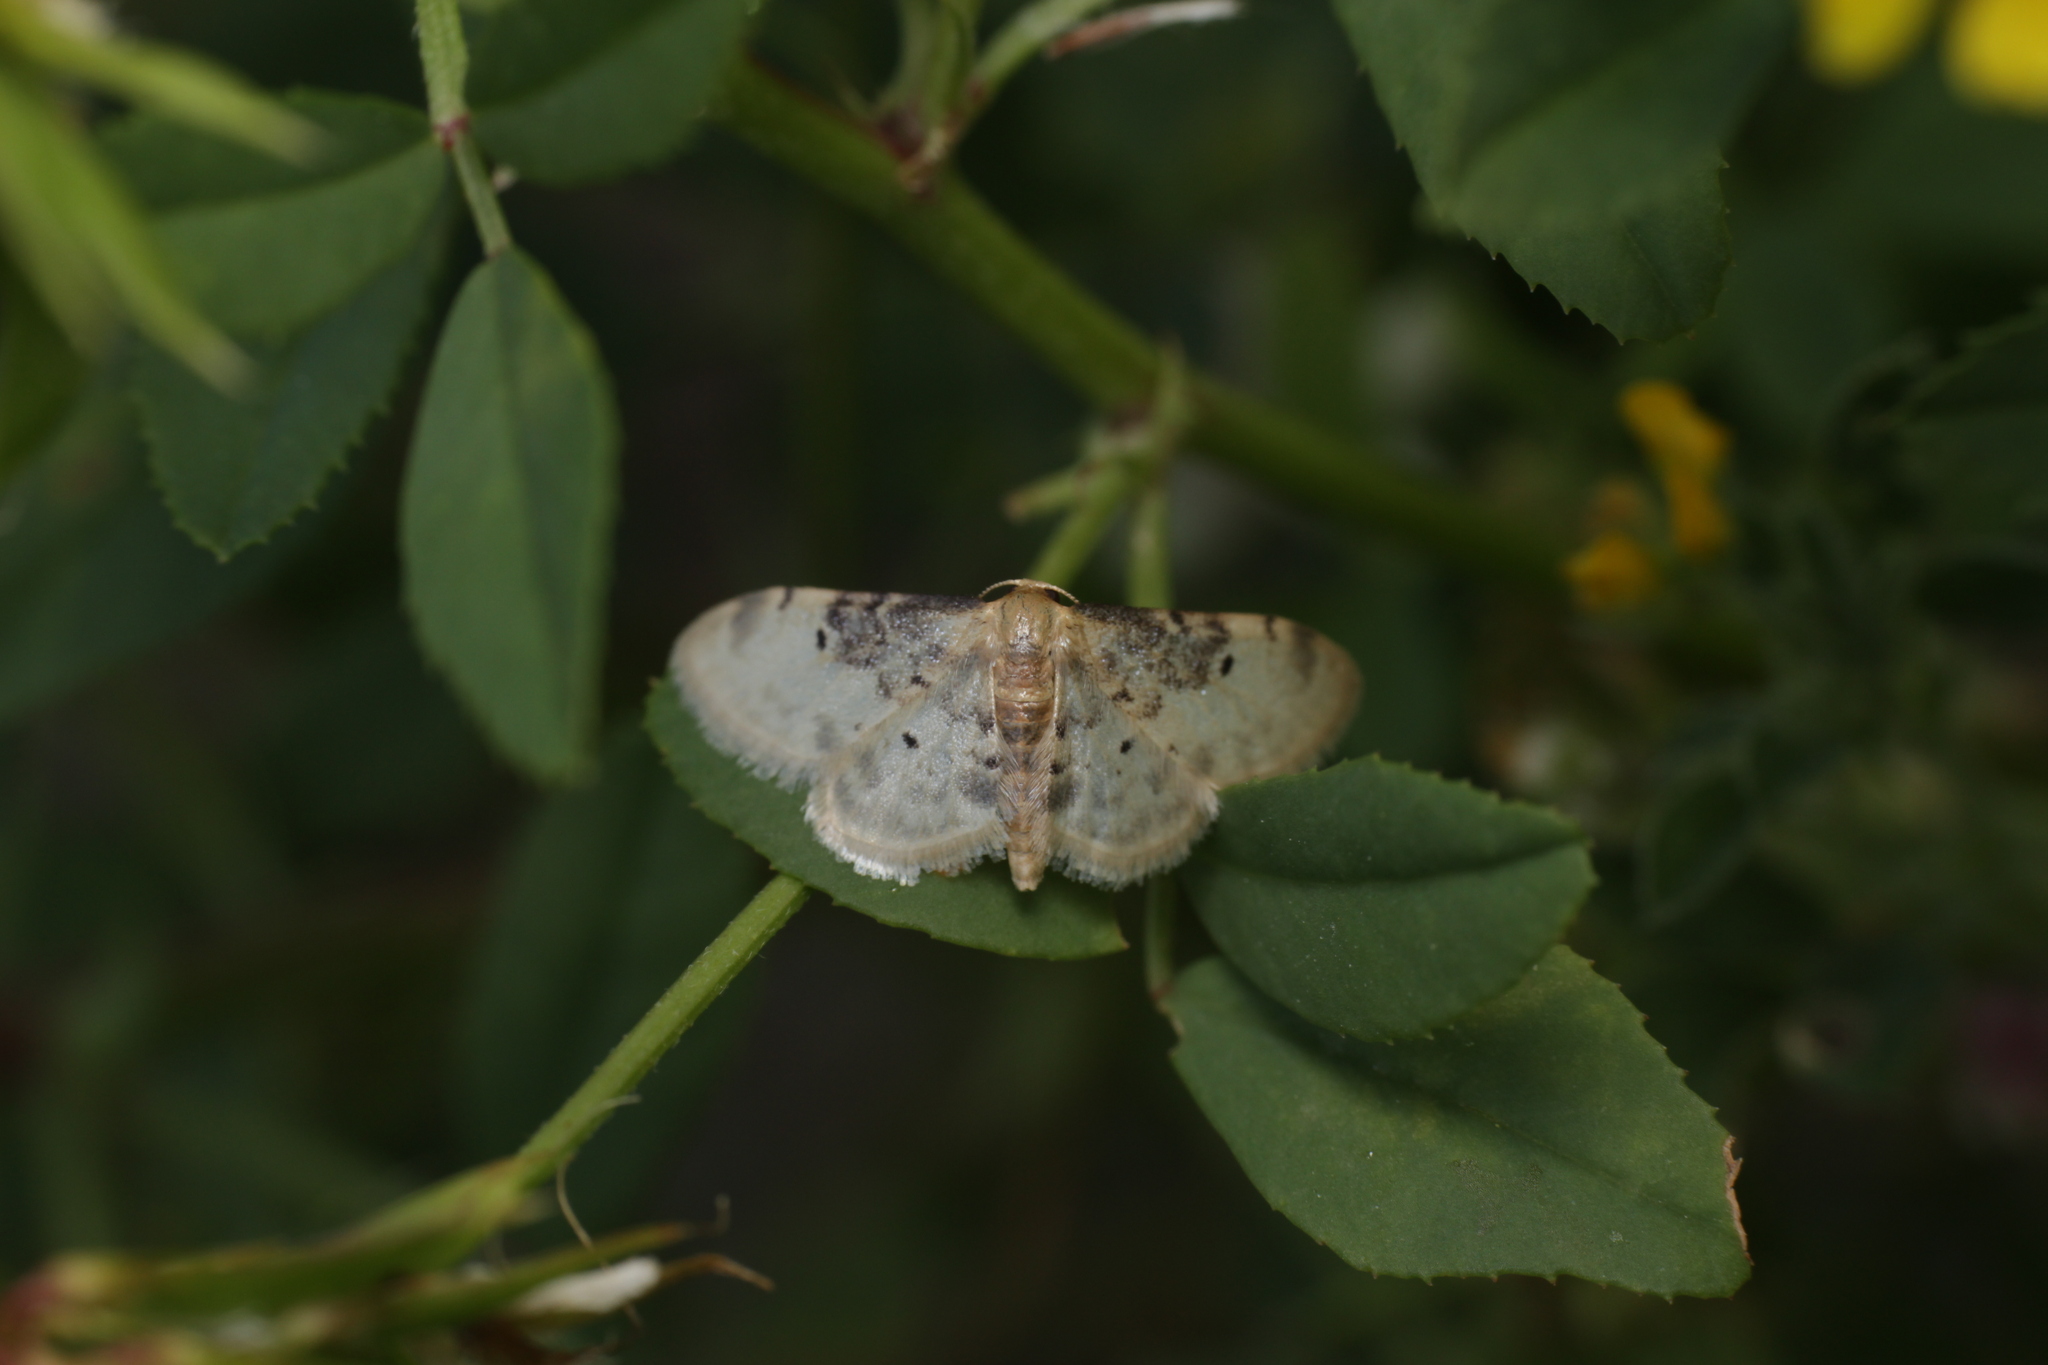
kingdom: Animalia
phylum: Arthropoda
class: Insecta
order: Lepidoptera
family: Geometridae
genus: Idaea
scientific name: Idaea filicata
